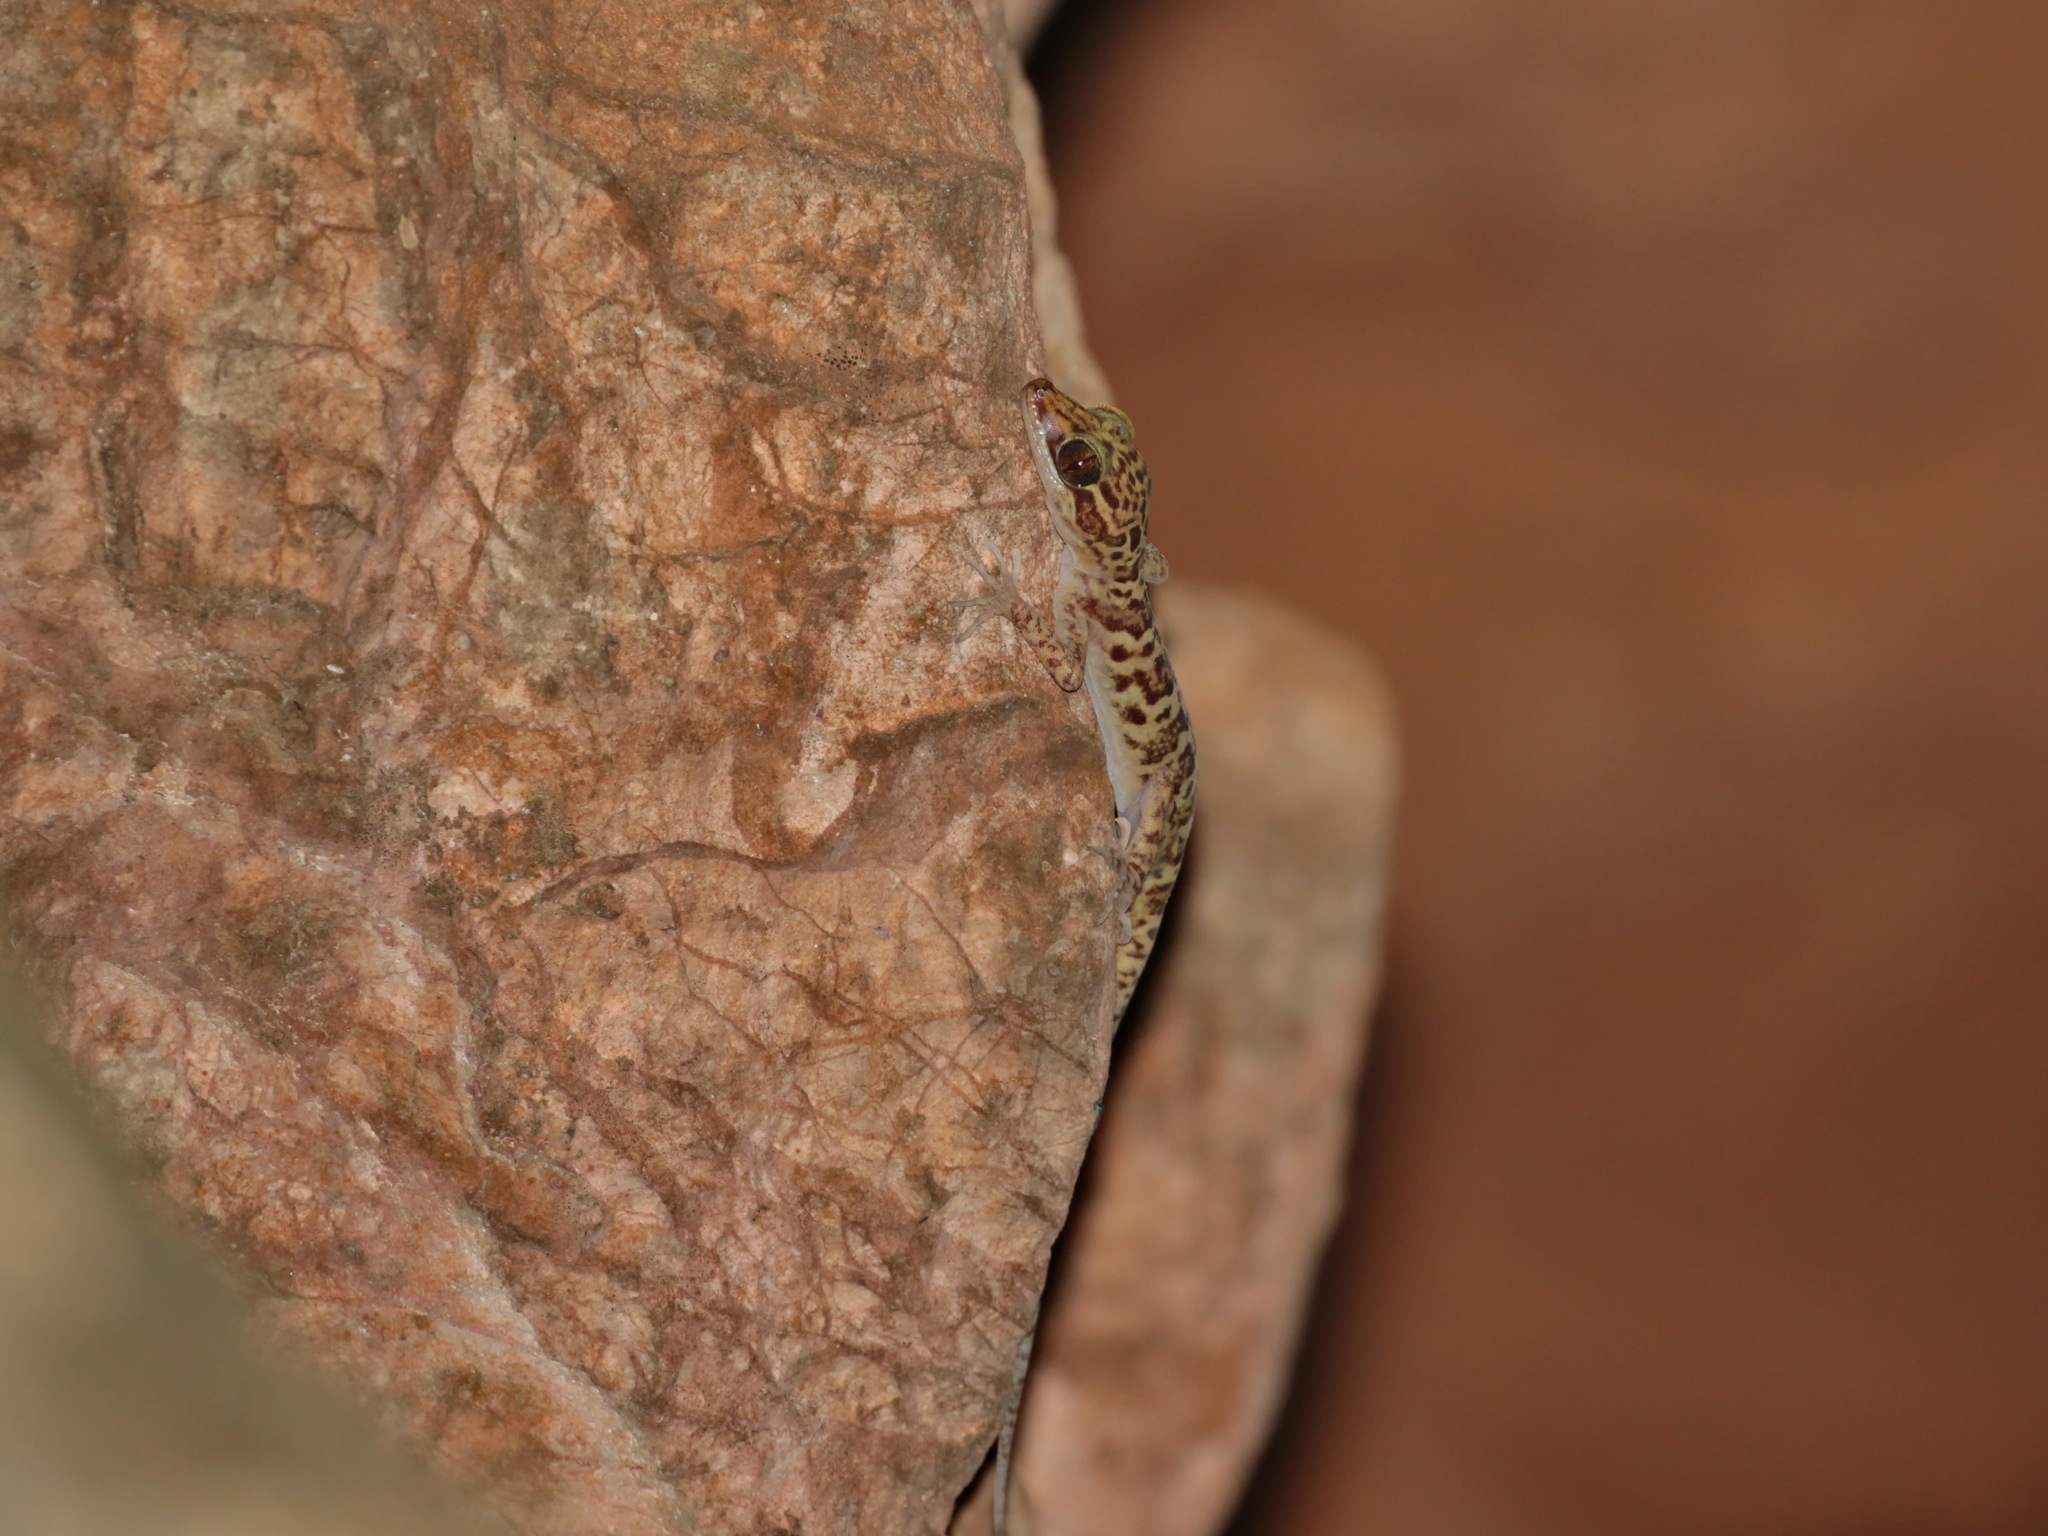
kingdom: Animalia
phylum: Chordata
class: Squamata
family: Gekkonidae
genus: Cyrtodactylus
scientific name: Cyrtodactylus kunyai
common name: Kunya’s bent-toed gecko
